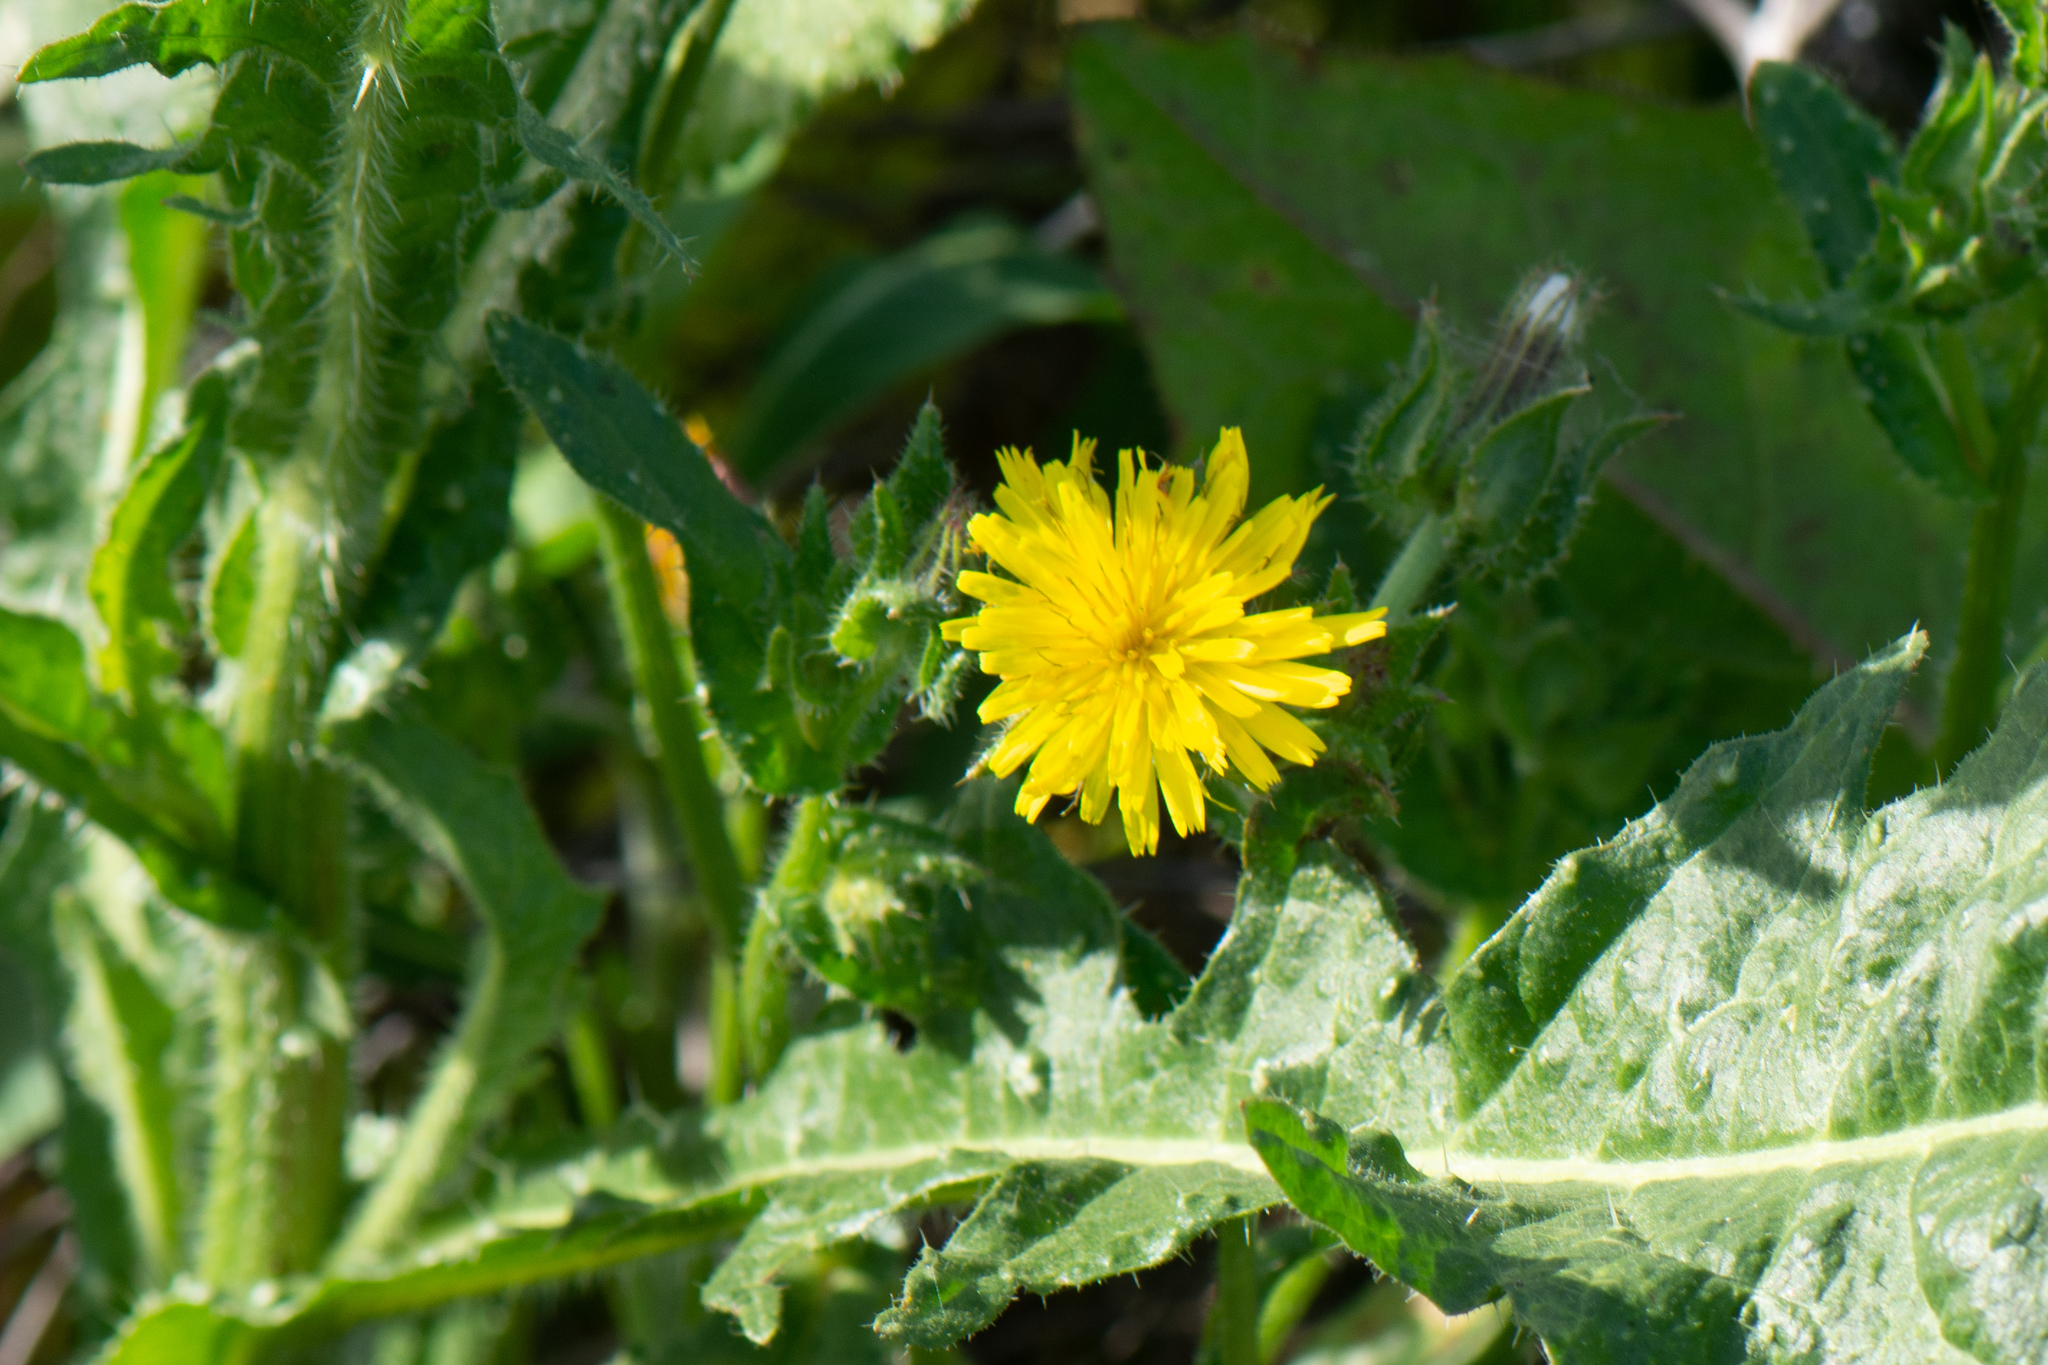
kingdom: Plantae
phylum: Tracheophyta
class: Magnoliopsida
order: Asterales
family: Asteraceae
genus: Helminthotheca
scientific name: Helminthotheca echioides
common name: Ox-tongue
